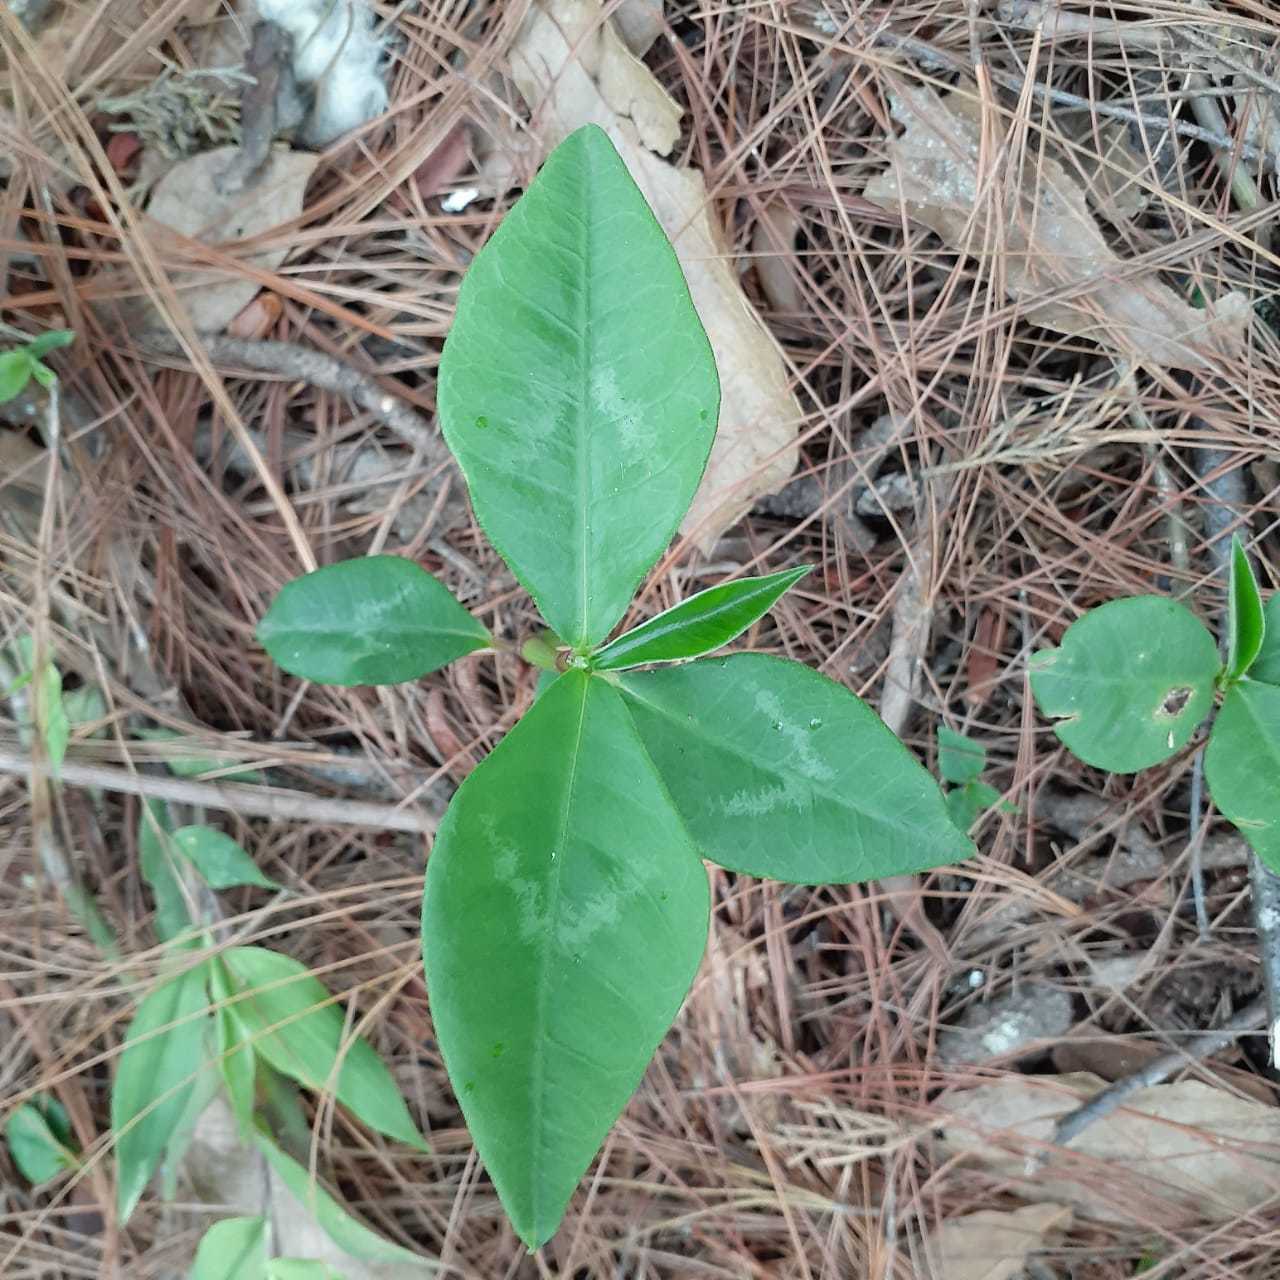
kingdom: Plantae
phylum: Tracheophyta
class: Magnoliopsida
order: Malpighiales
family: Euphorbiaceae
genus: Euphorbia
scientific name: Euphorbia lancifolia
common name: Ixbut
